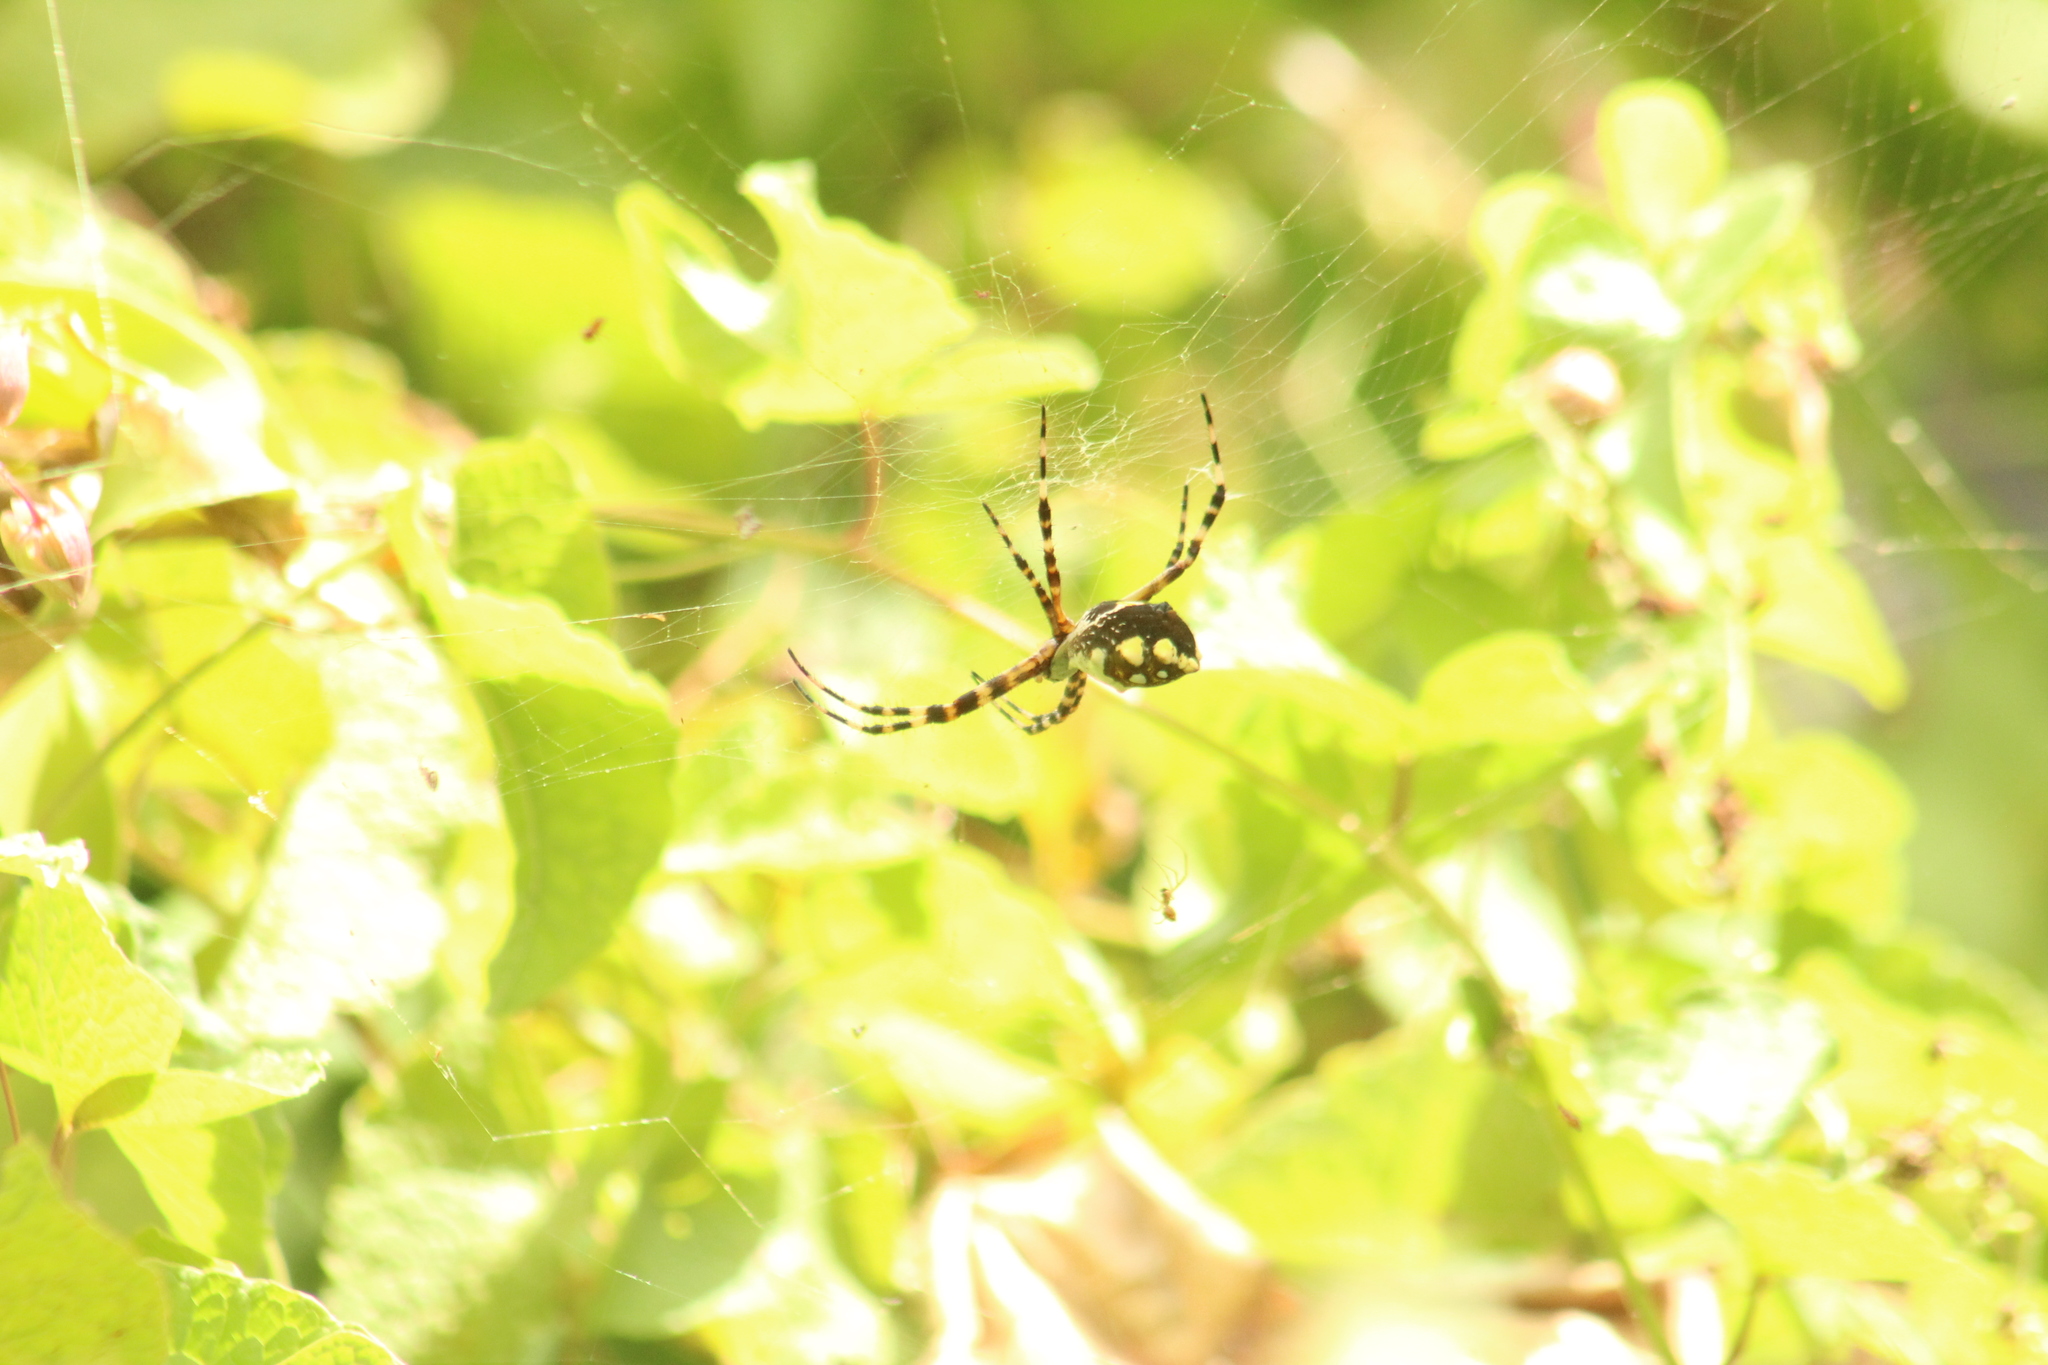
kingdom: Animalia
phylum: Arthropoda
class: Arachnida
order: Araneae
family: Araneidae
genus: Argiope
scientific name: Argiope argentata
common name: Orb weavers
